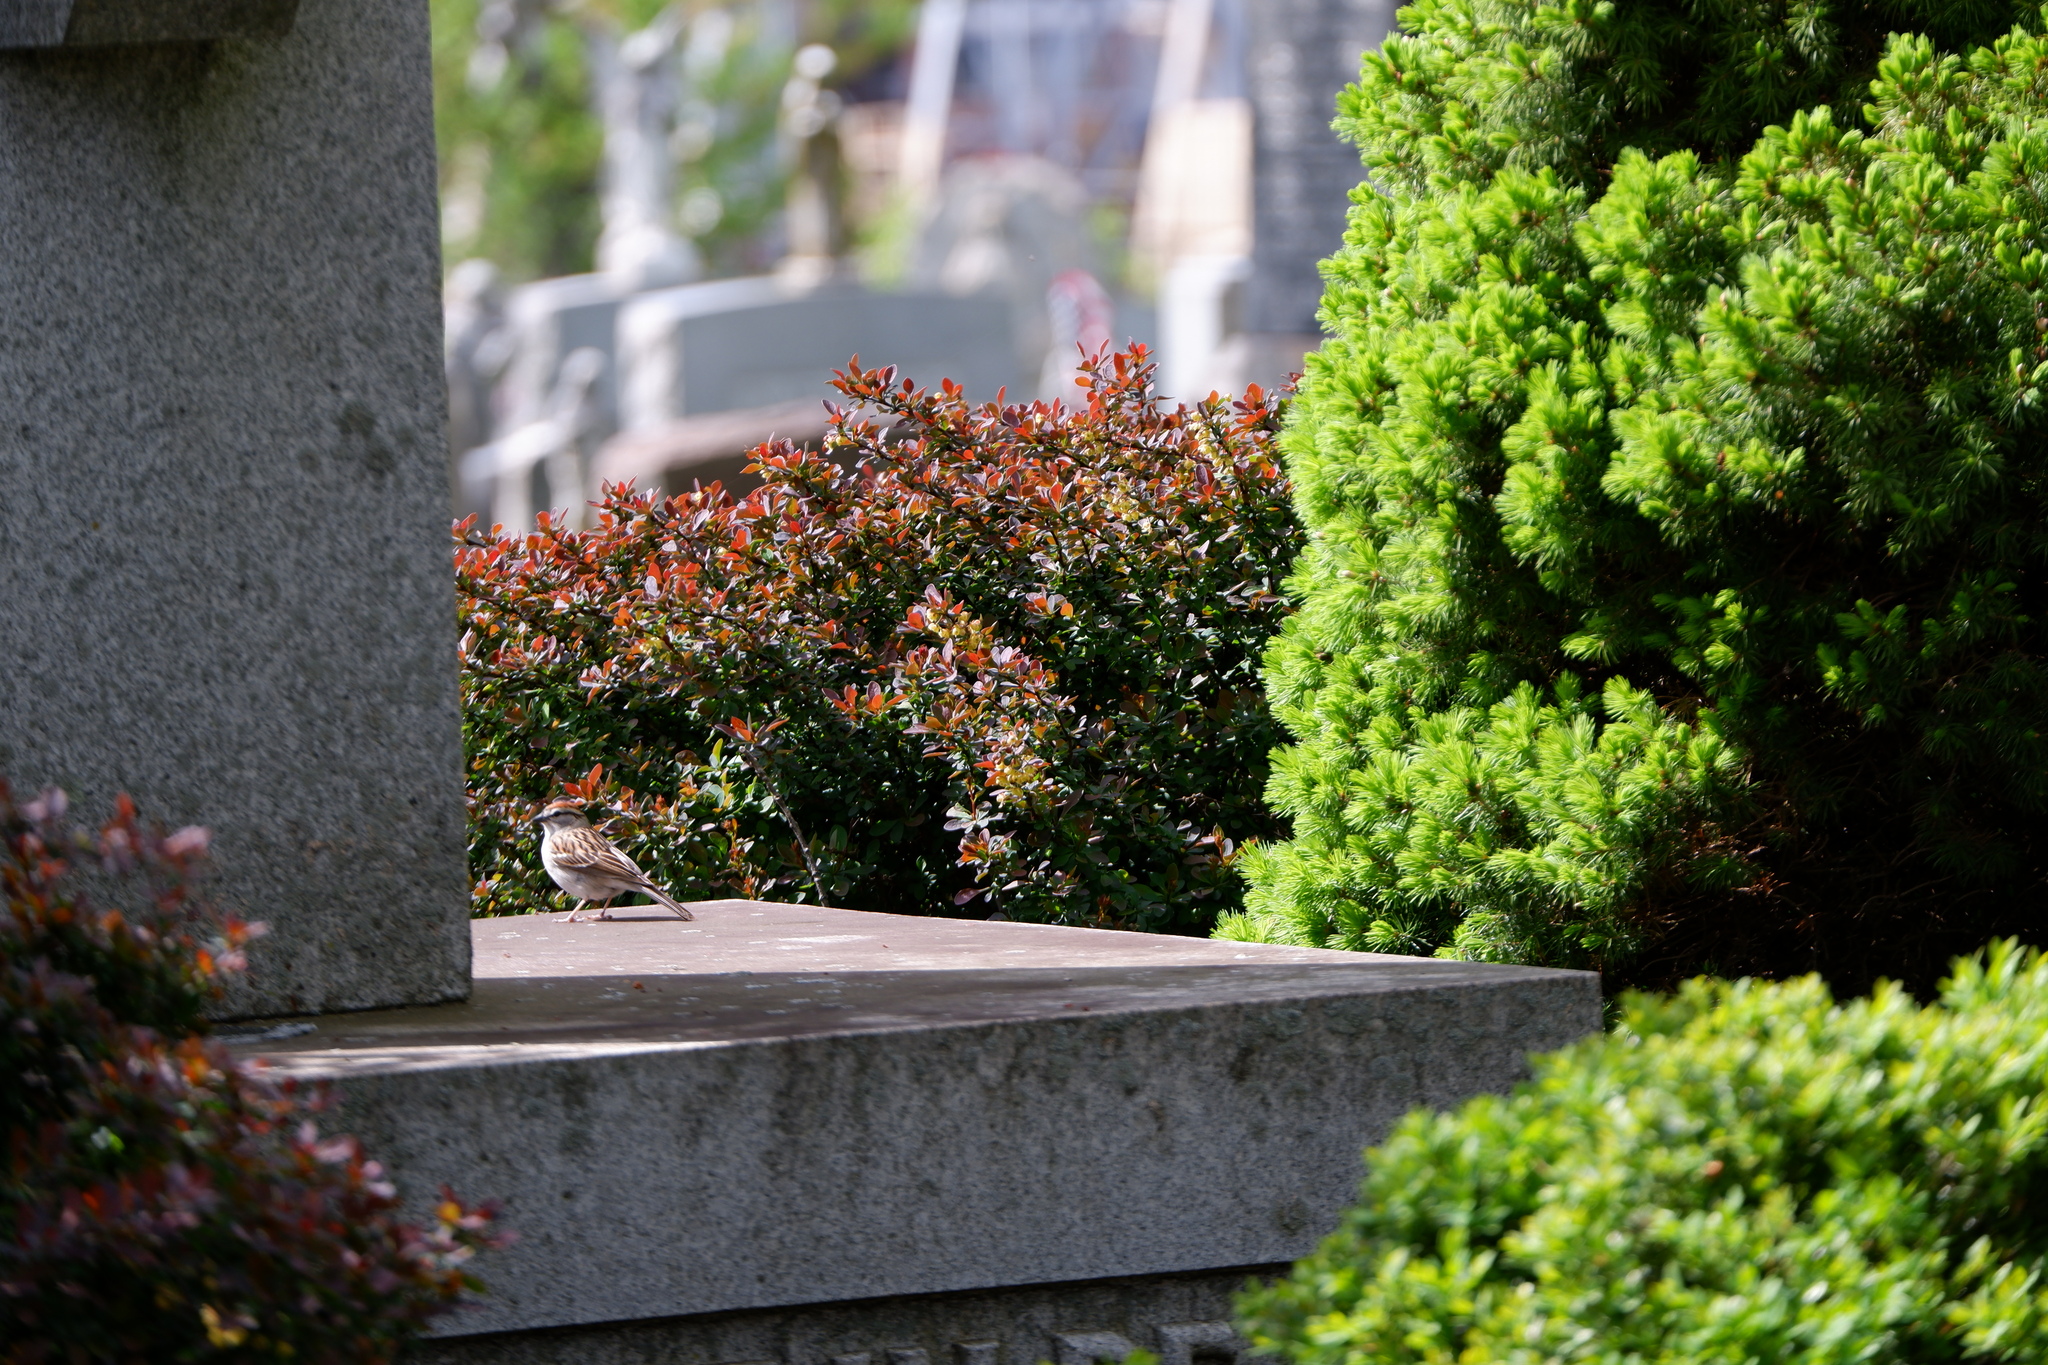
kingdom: Animalia
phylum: Chordata
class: Aves
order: Passeriformes
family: Passerellidae
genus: Spizella
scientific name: Spizella passerina
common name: Chipping sparrow
